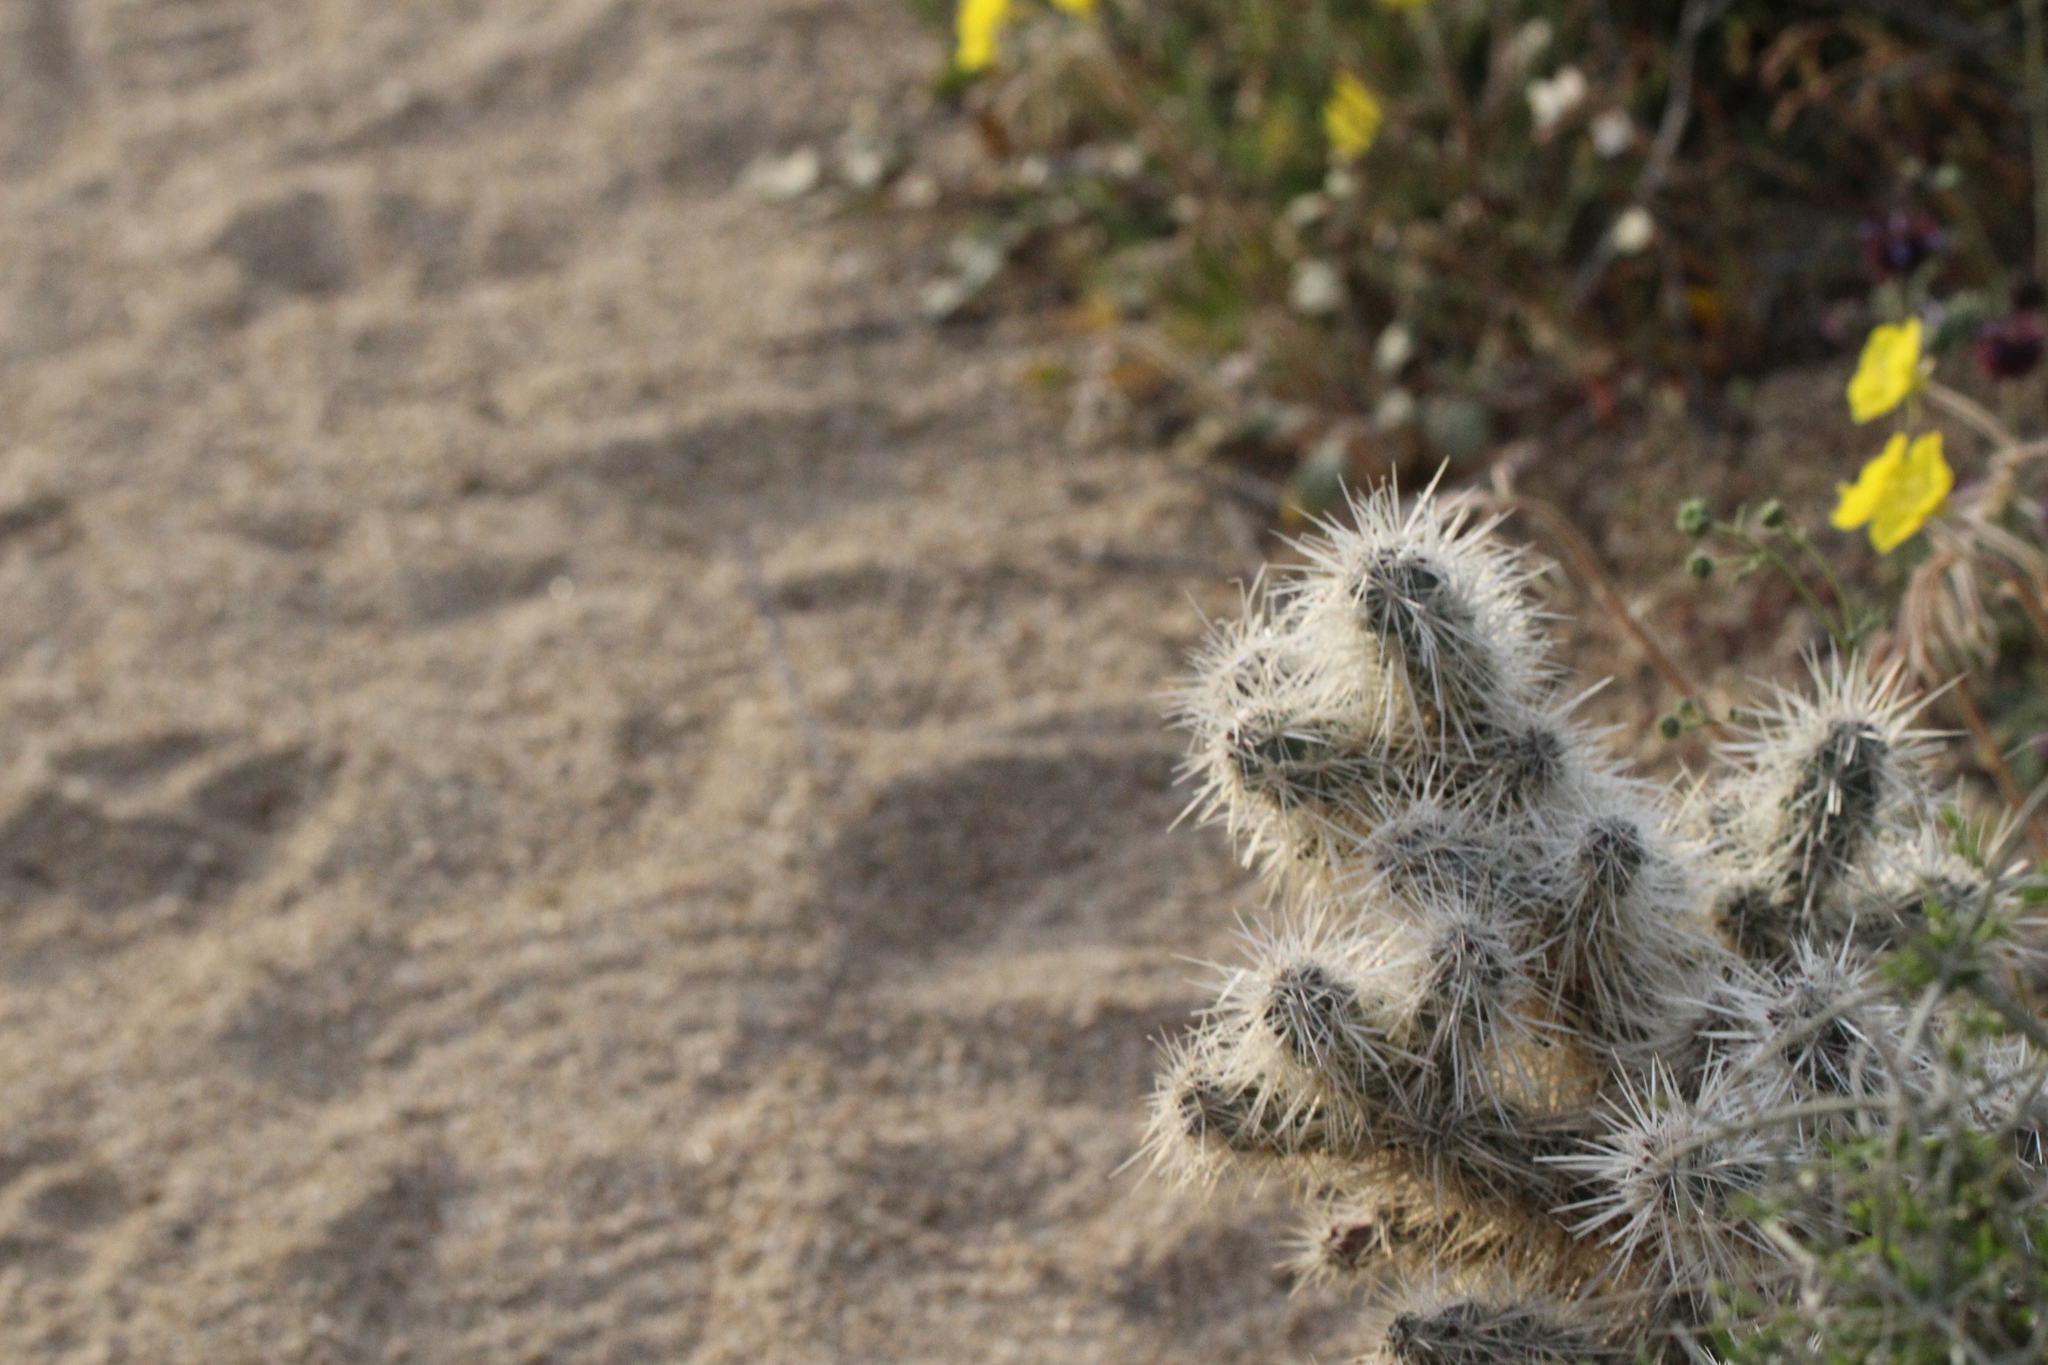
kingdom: Plantae
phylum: Tracheophyta
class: Magnoliopsida
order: Caryophyllales
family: Cactaceae
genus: Cylindropuntia
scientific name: Cylindropuntia echinocarpa
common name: Ground cholla
